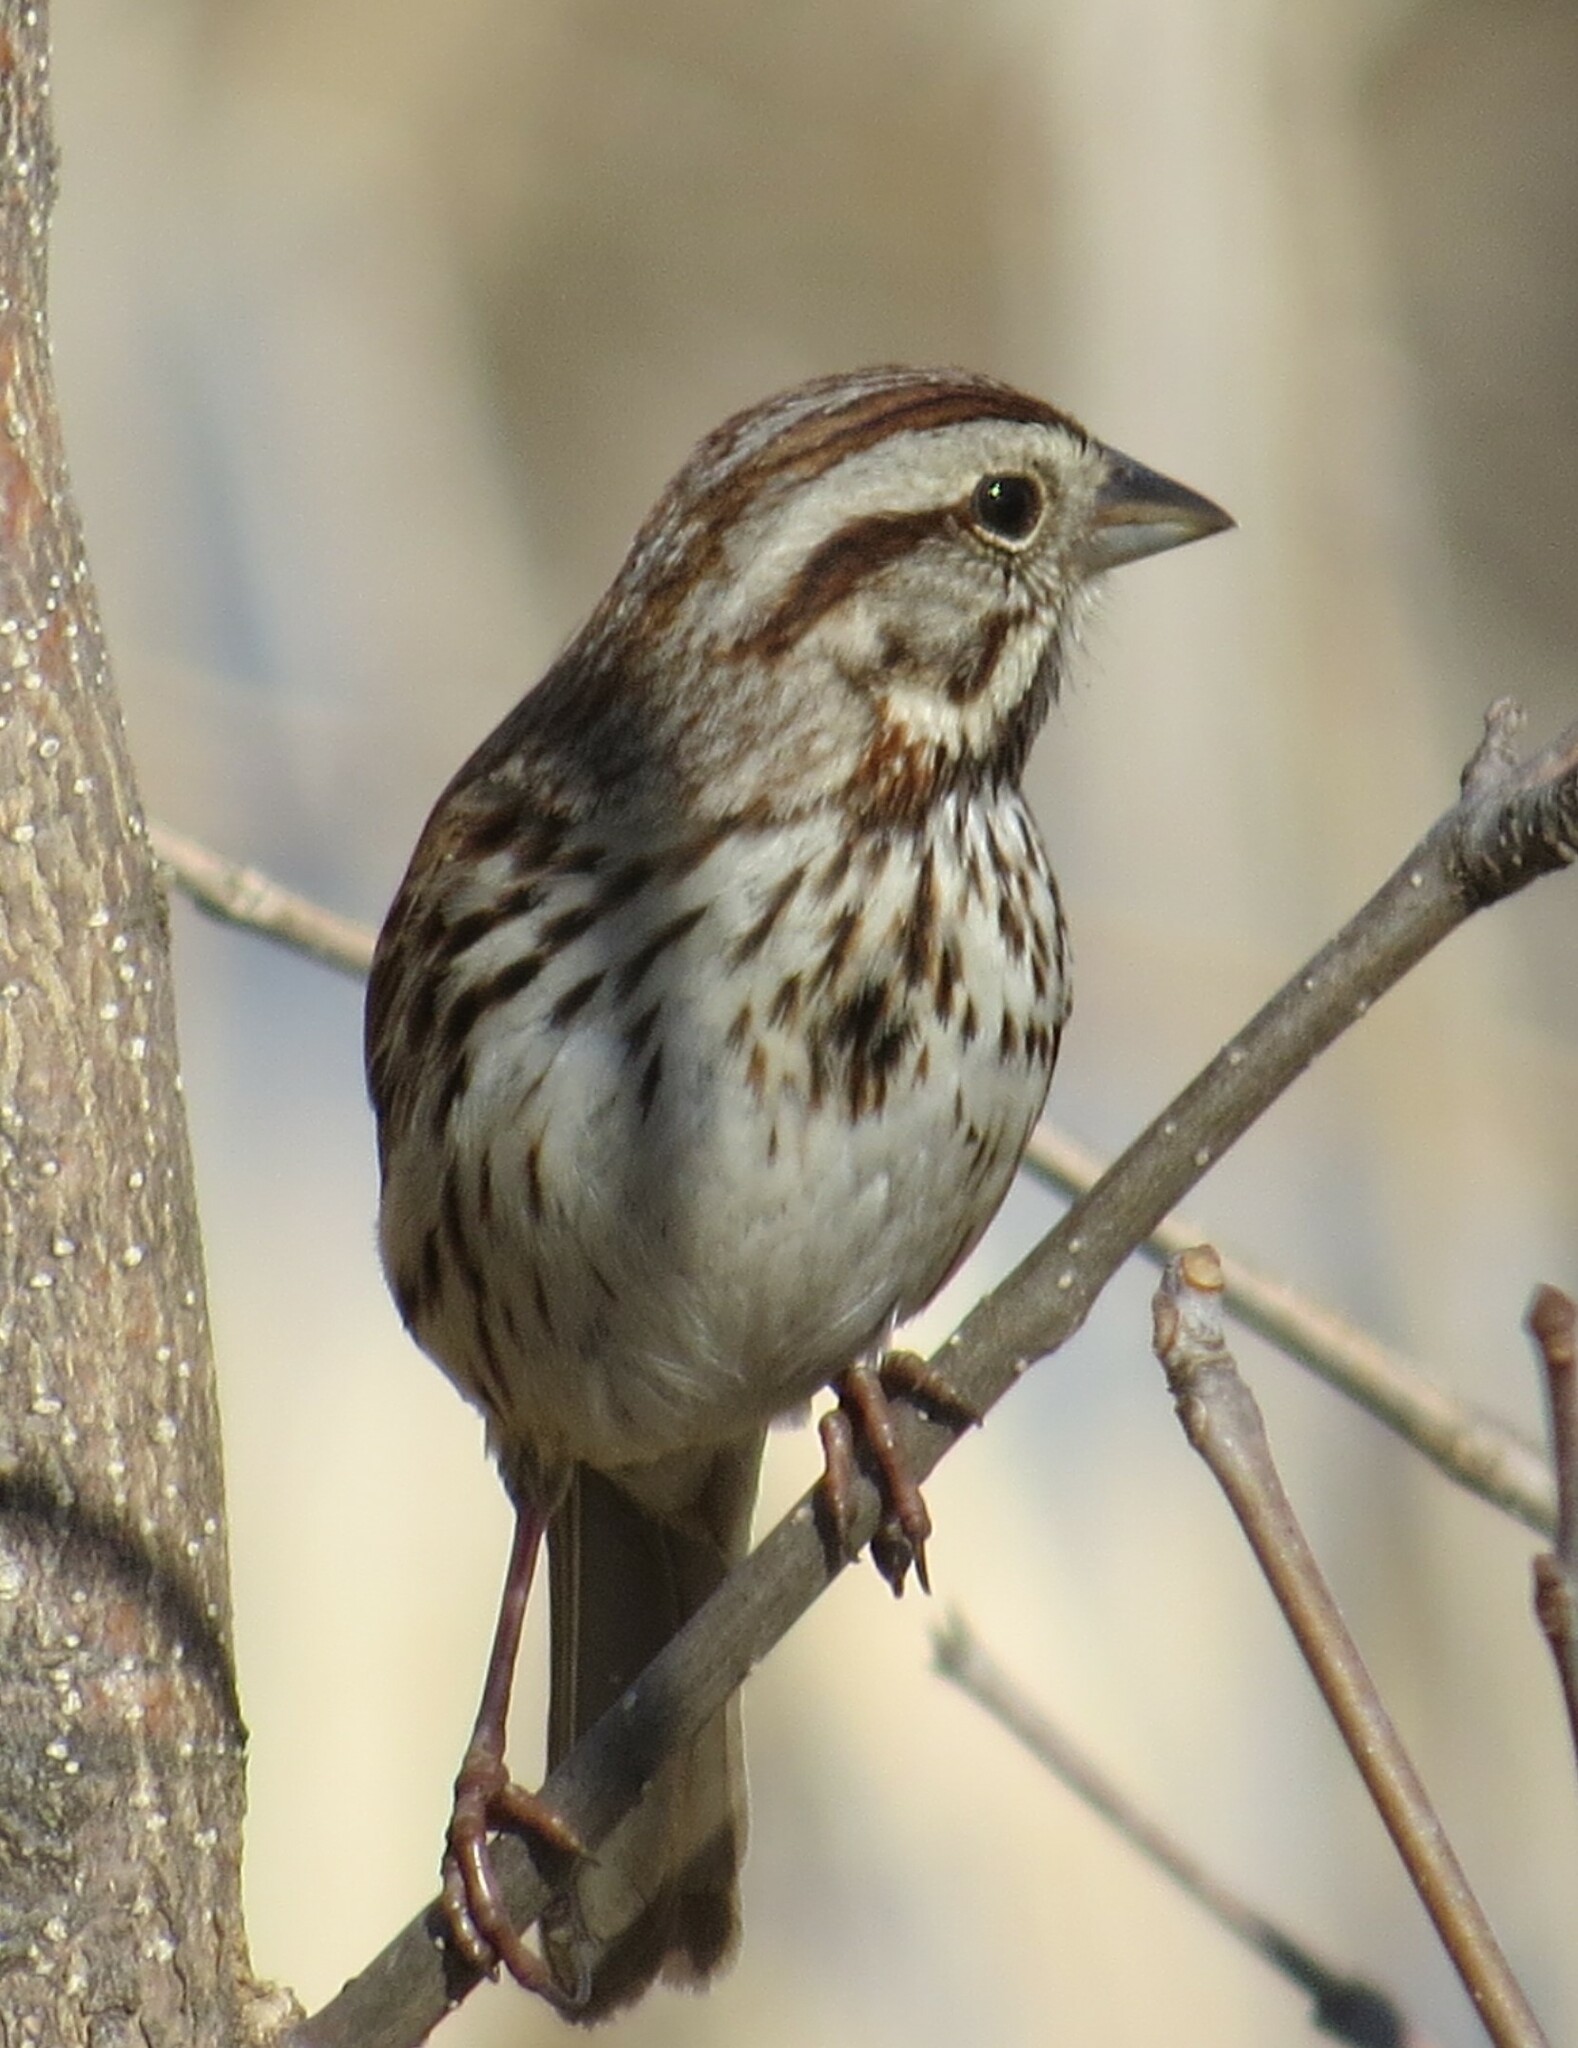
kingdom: Animalia
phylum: Chordata
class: Aves
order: Passeriformes
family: Passerellidae
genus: Melospiza
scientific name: Melospiza melodia
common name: Song sparrow
